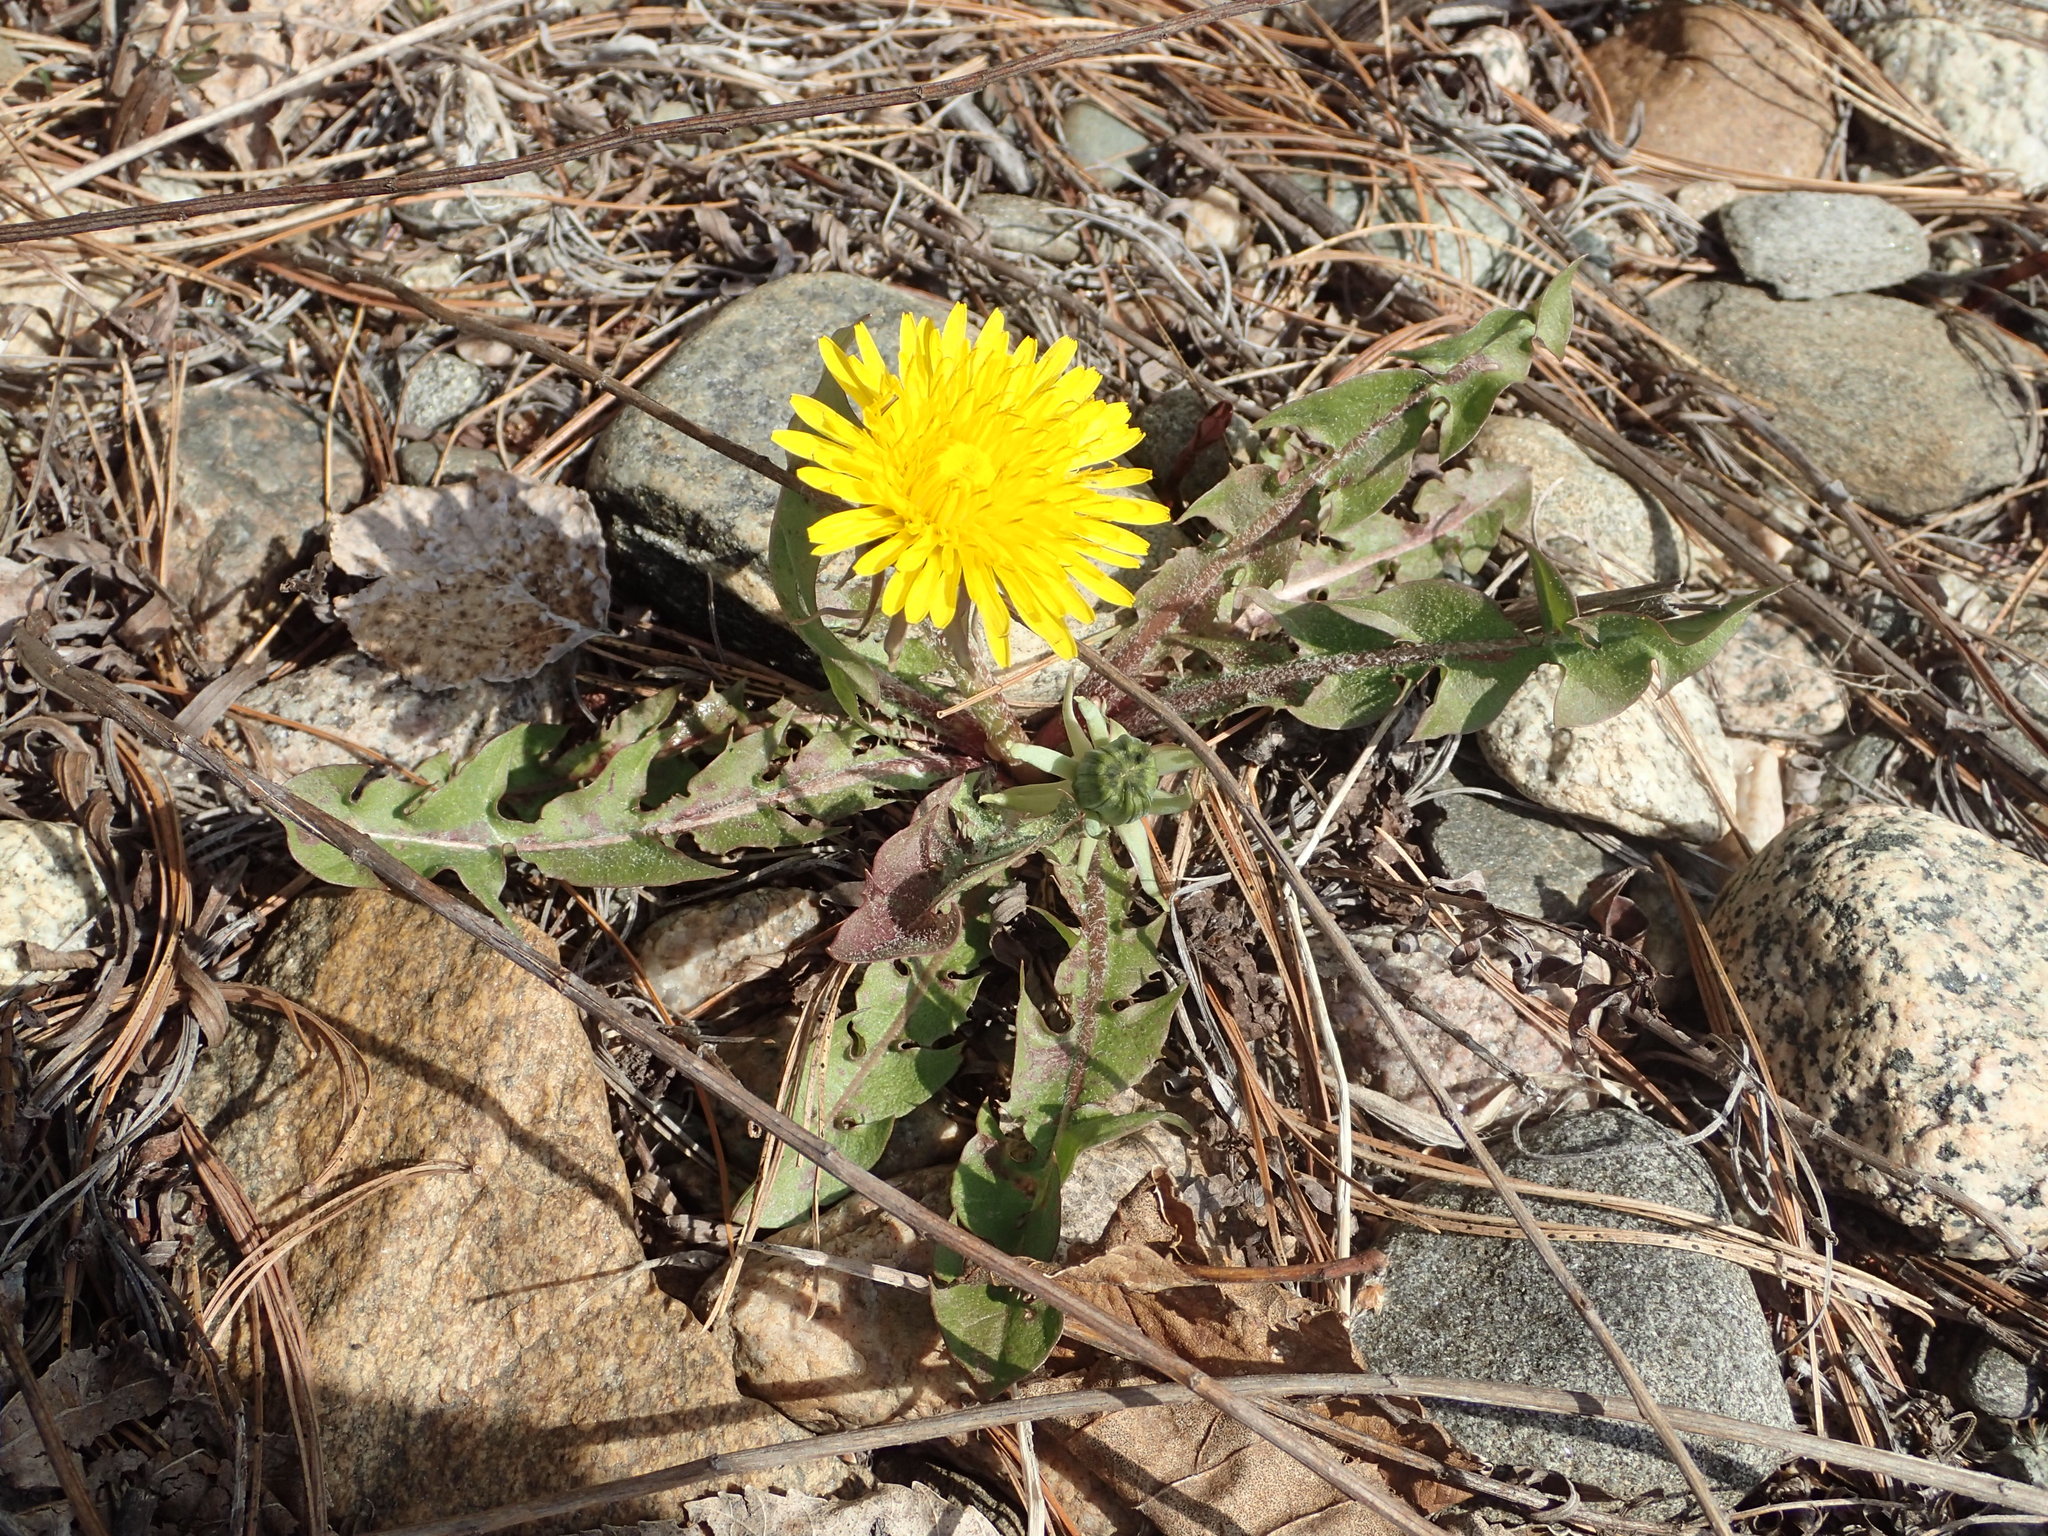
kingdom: Plantae
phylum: Tracheophyta
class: Magnoliopsida
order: Asterales
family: Asteraceae
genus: Taraxacum
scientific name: Taraxacum officinale
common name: Common dandelion
